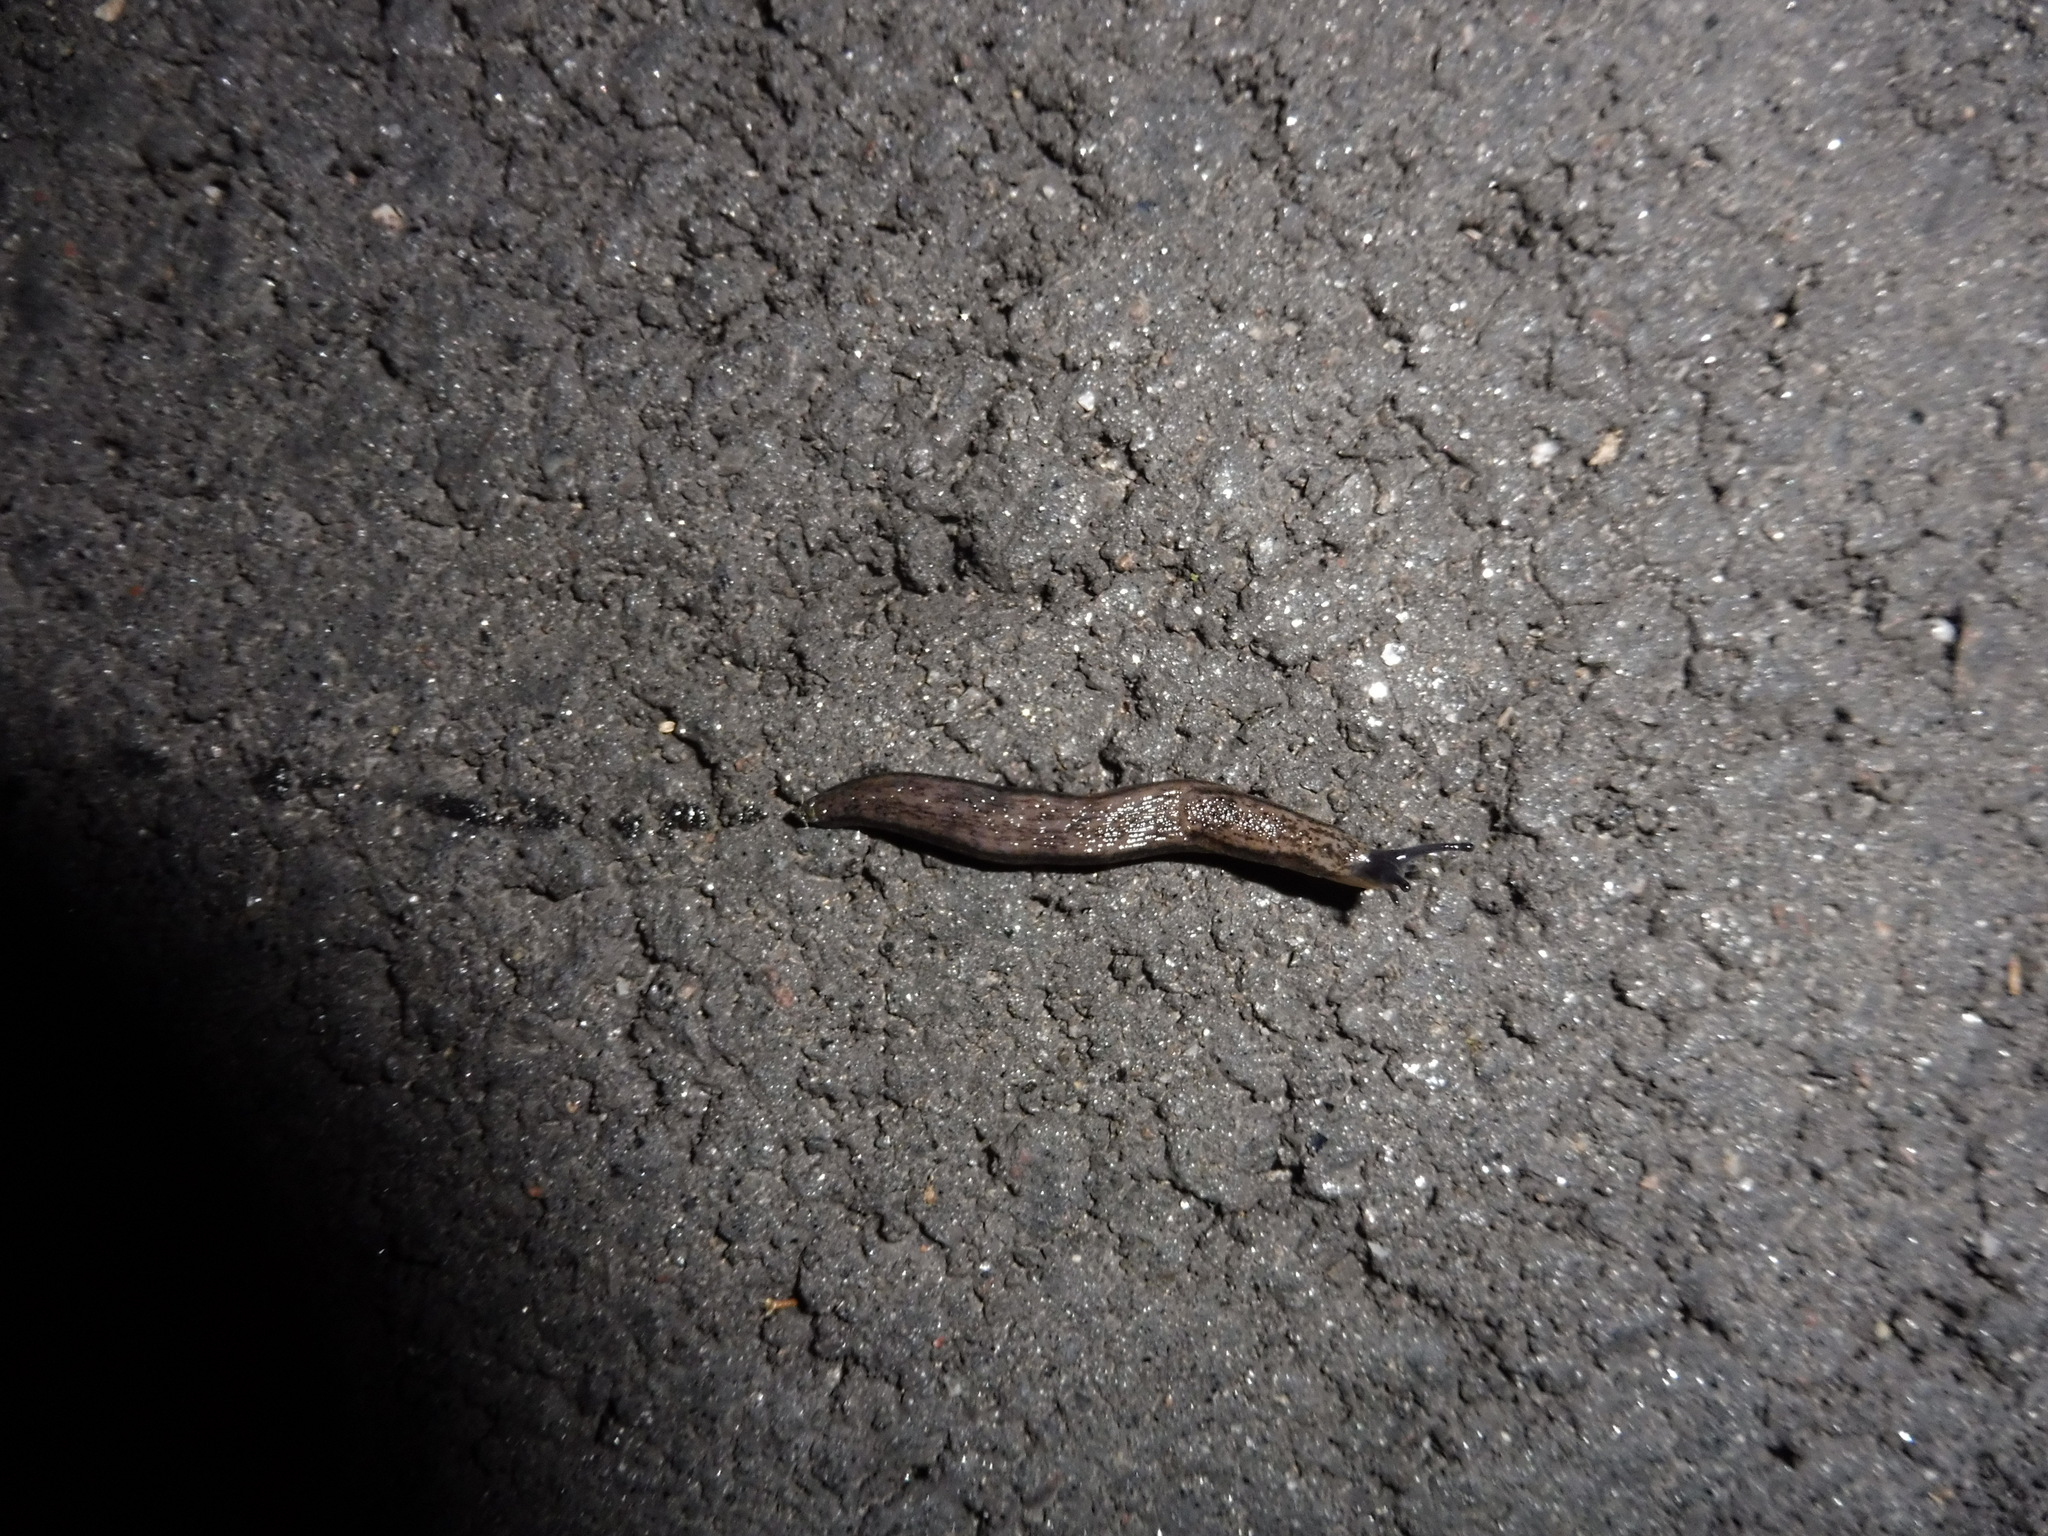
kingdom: Animalia
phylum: Mollusca
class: Gastropoda
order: Stylommatophora
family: Arionidae
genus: Arion
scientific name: Arion fasciatus
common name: Orange-banded arion
